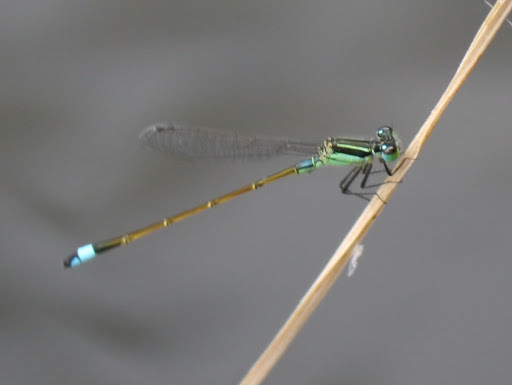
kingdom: Animalia
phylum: Arthropoda
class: Insecta
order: Odonata
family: Coenagrionidae
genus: Ischnura
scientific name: Ischnura ramburii
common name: Rambur's forktail
